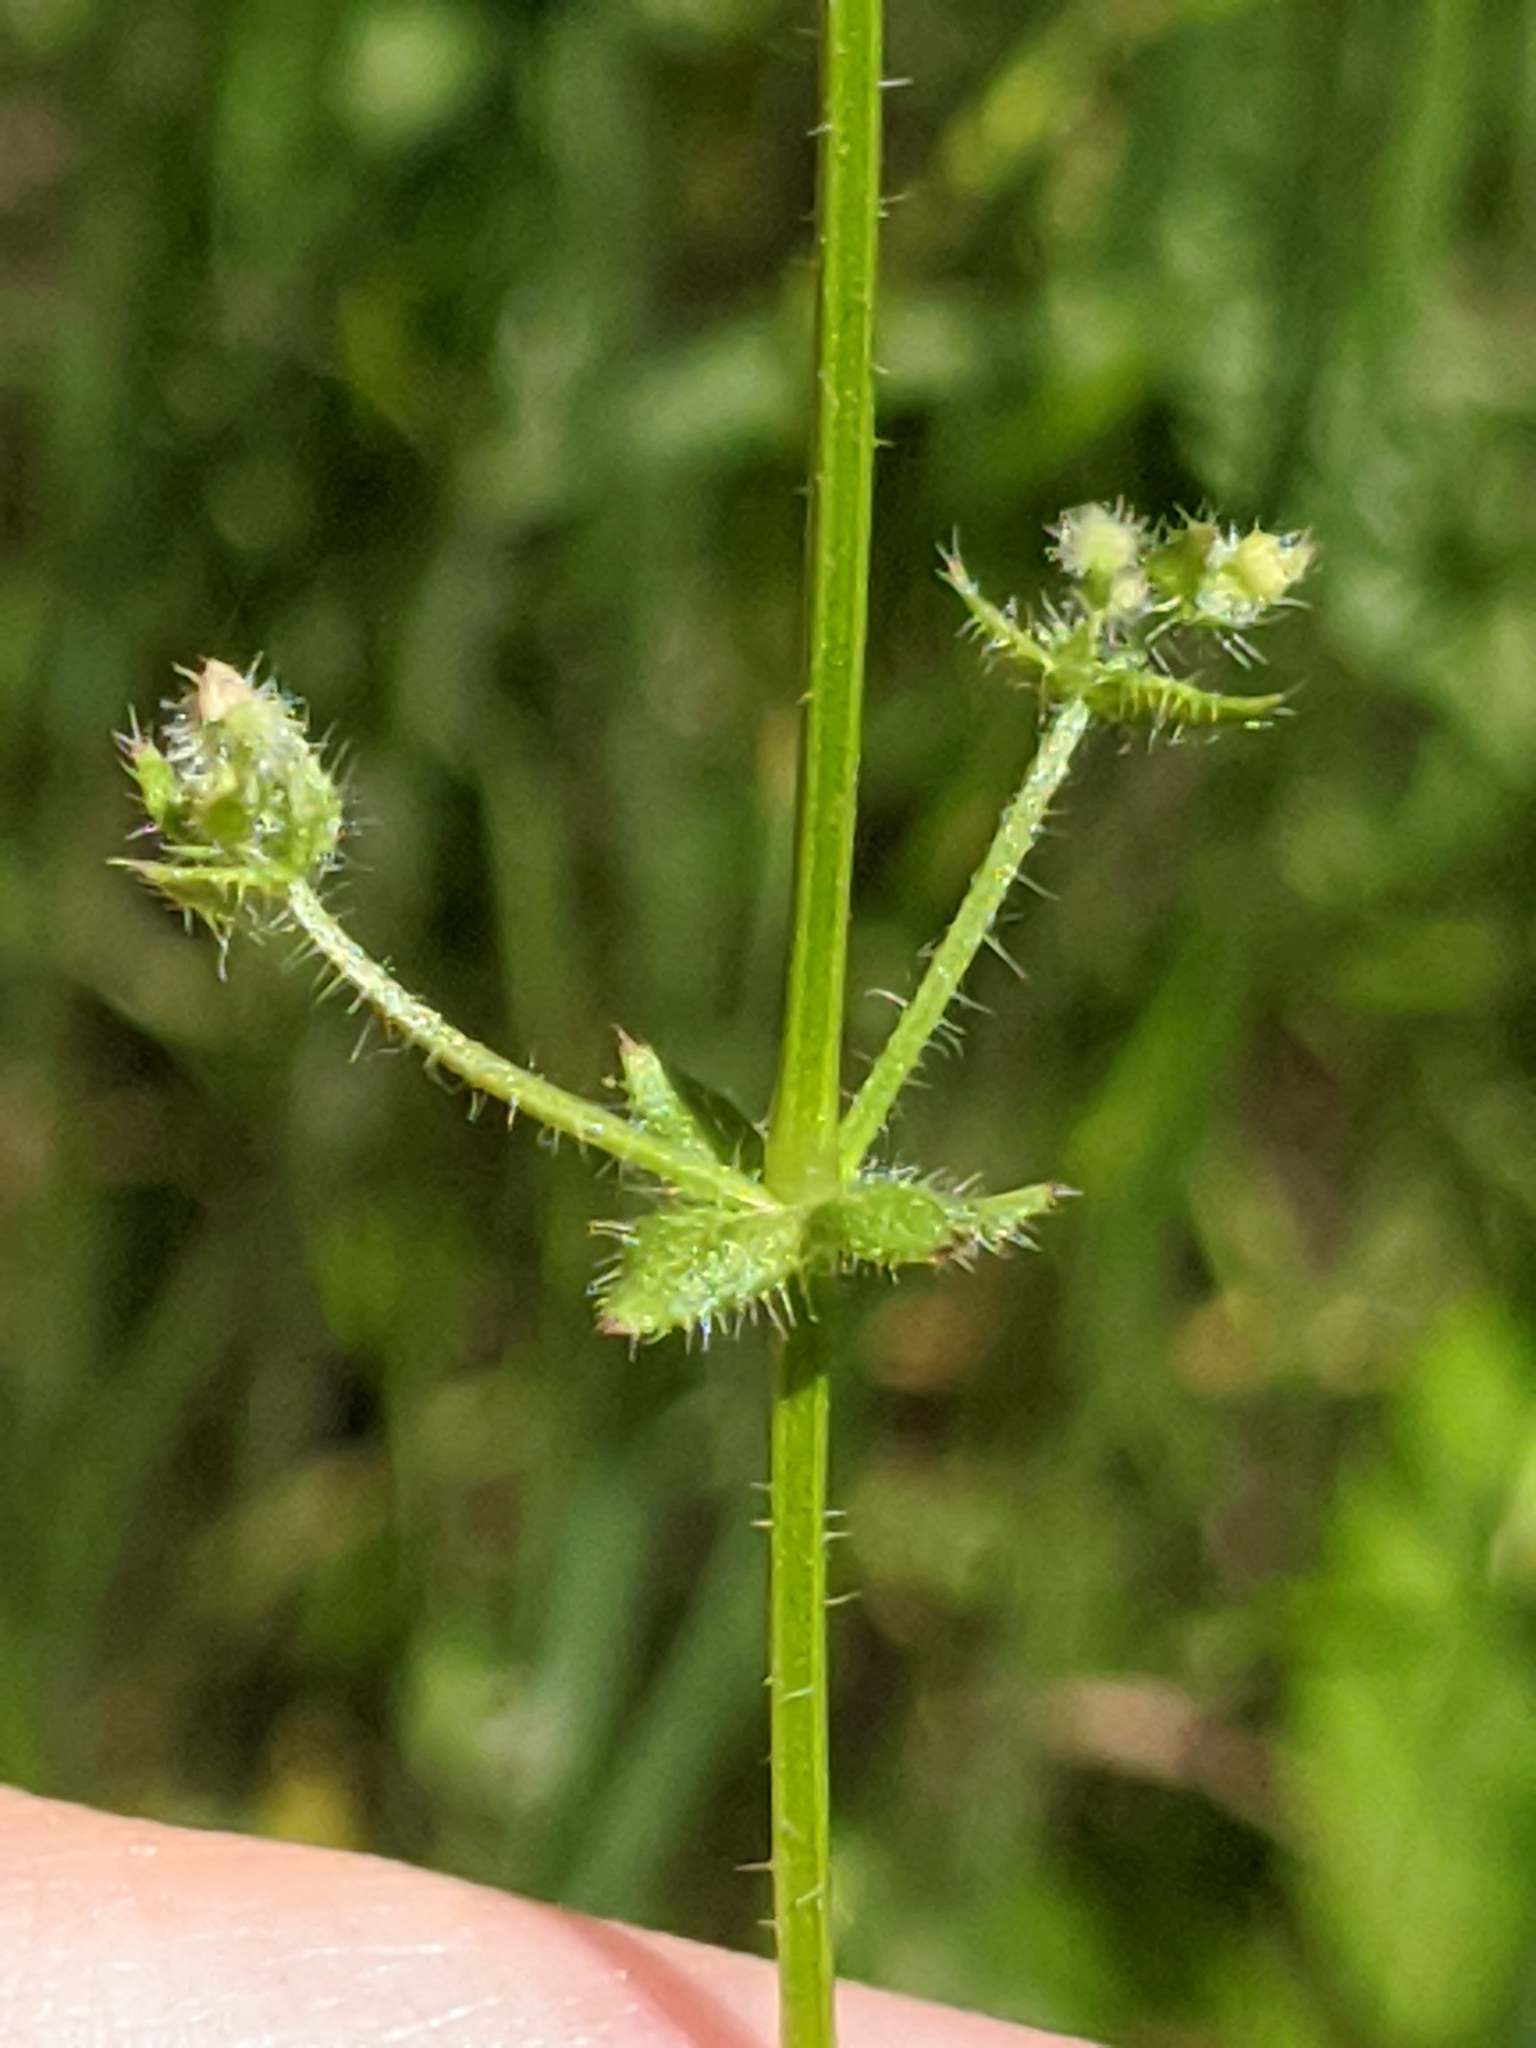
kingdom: Plantae
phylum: Tracheophyta
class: Magnoliopsida
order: Gentianales
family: Rubiaceae
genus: Galium
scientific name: Galium virgatum
